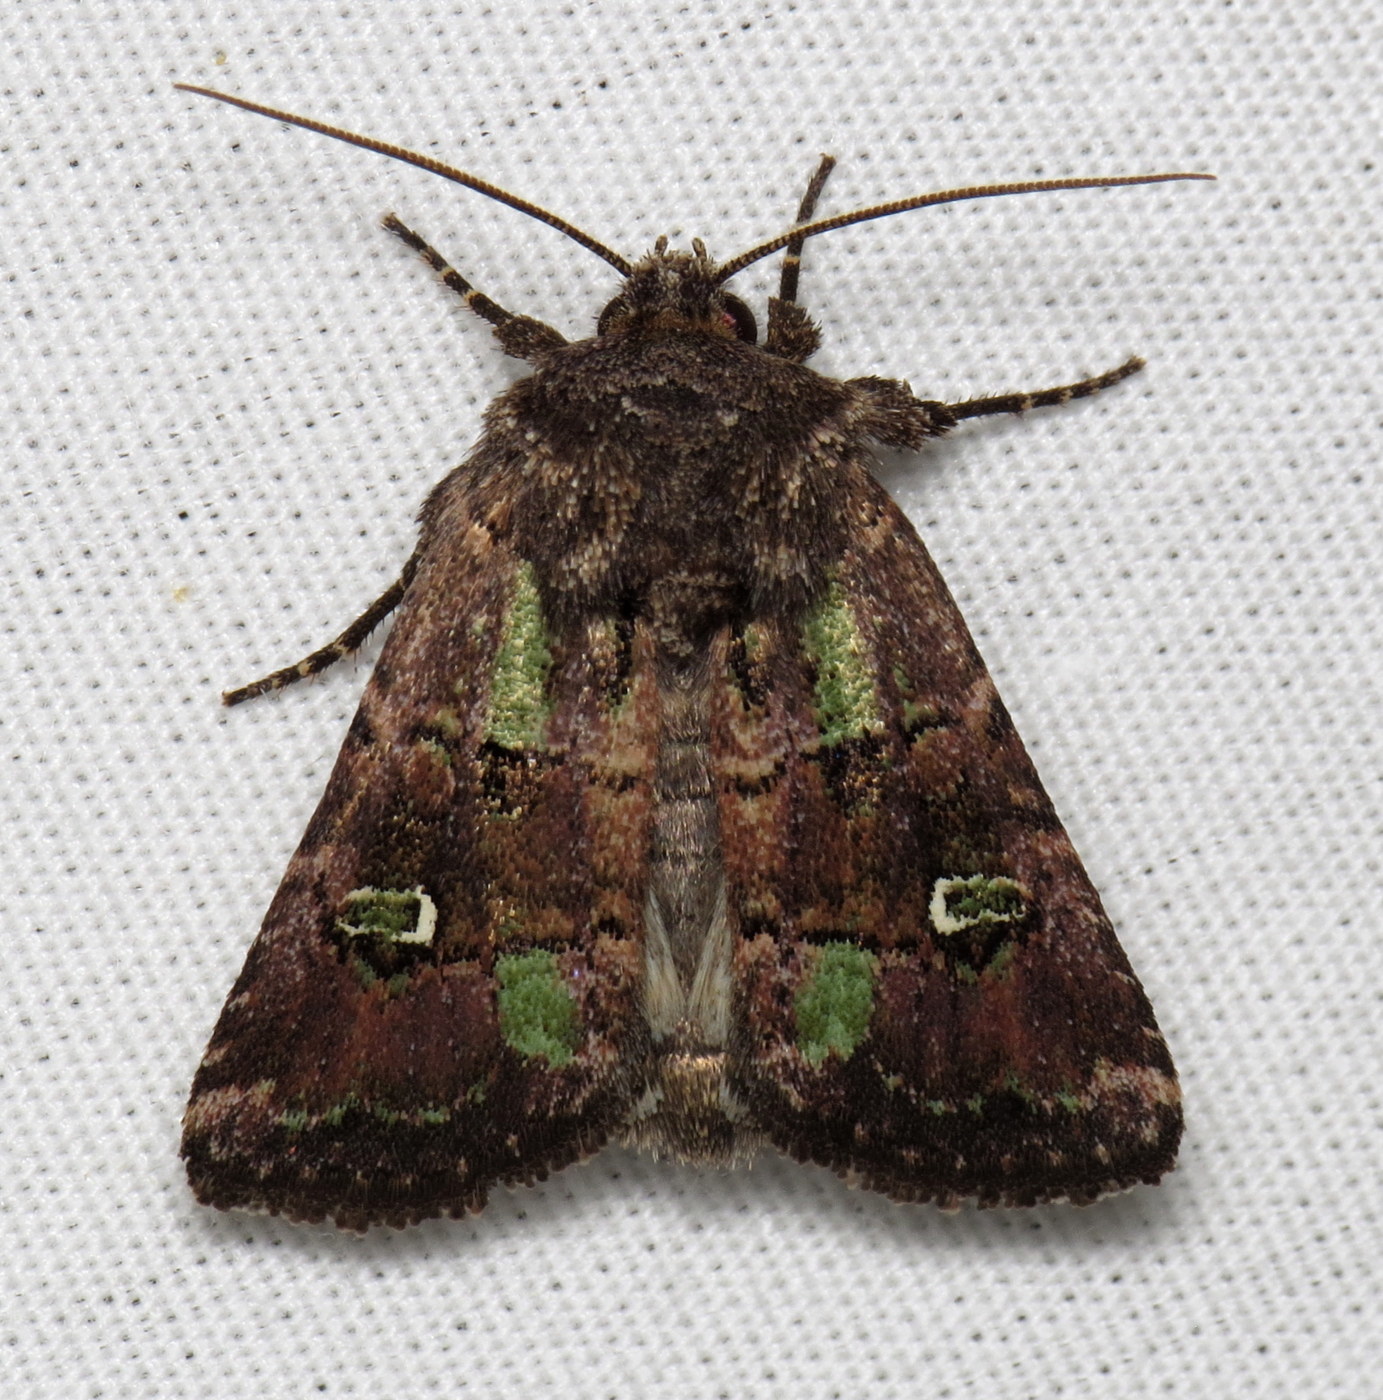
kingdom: Animalia
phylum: Arthropoda
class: Insecta
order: Lepidoptera
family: Noctuidae
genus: Lacinipolia
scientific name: Lacinipolia renigera
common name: Kidney-spotted minor
